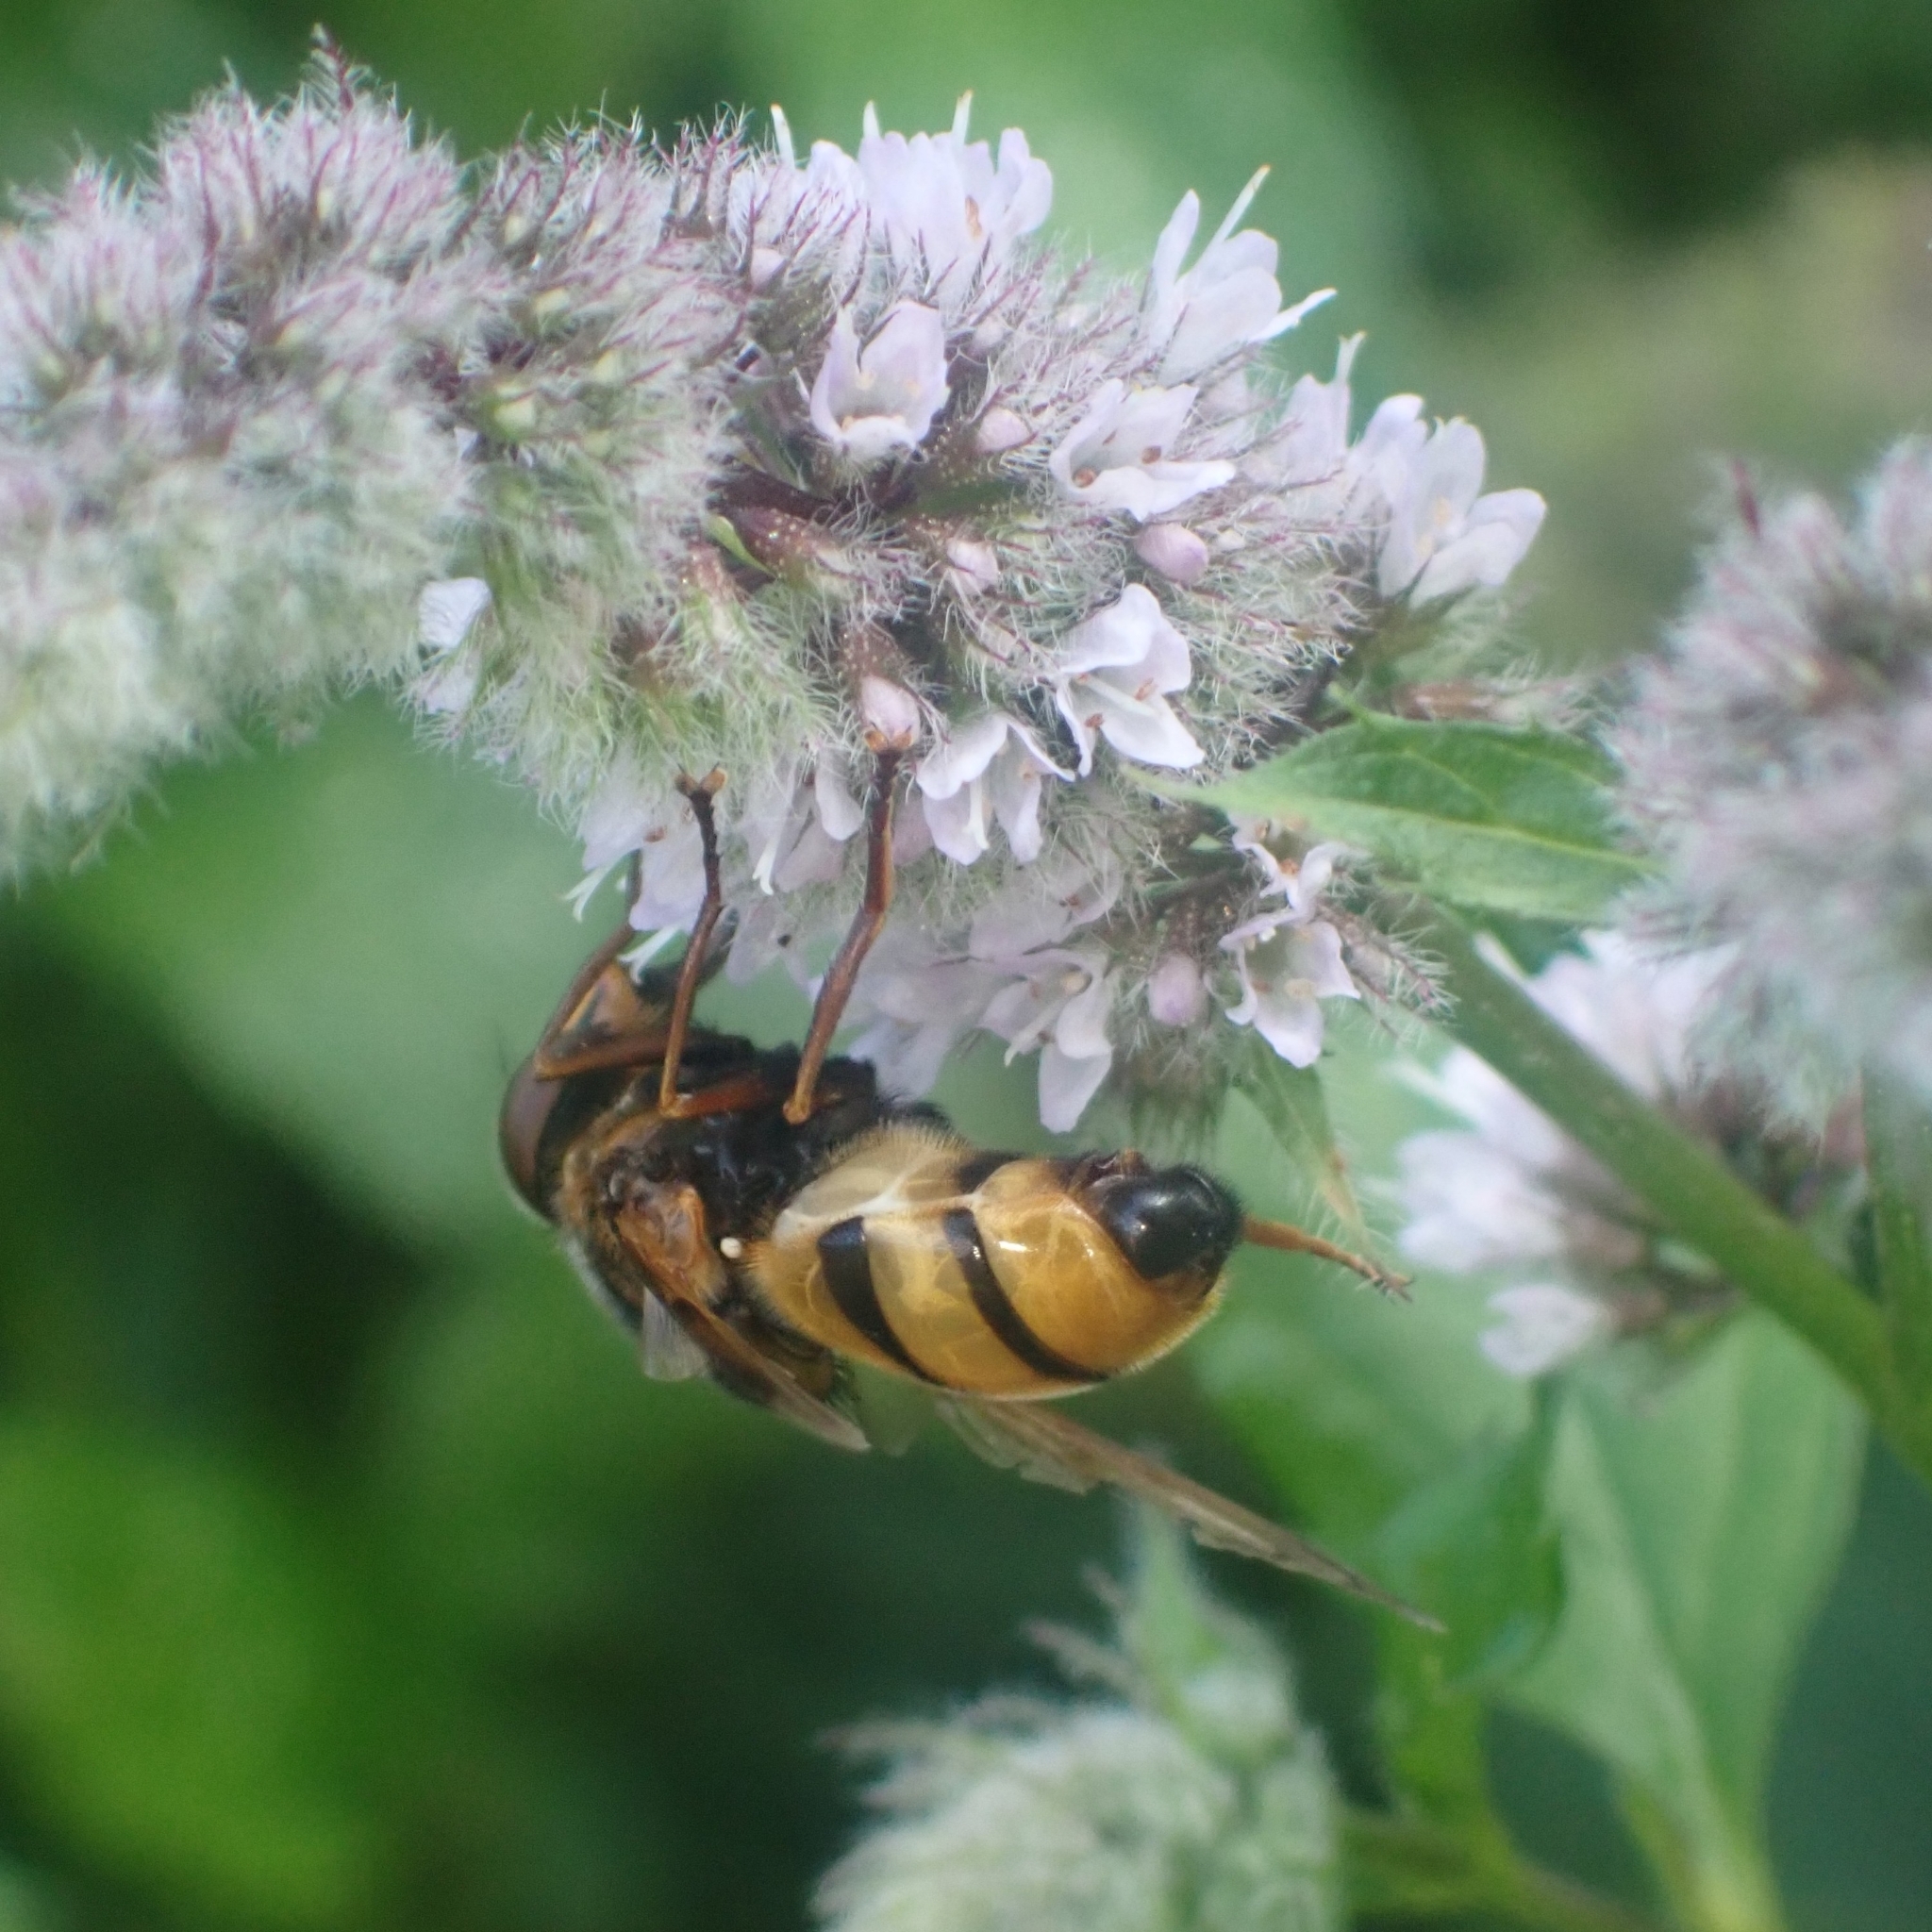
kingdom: Animalia
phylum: Arthropoda
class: Insecta
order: Diptera
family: Syrphidae
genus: Volucella
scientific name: Volucella inanis
